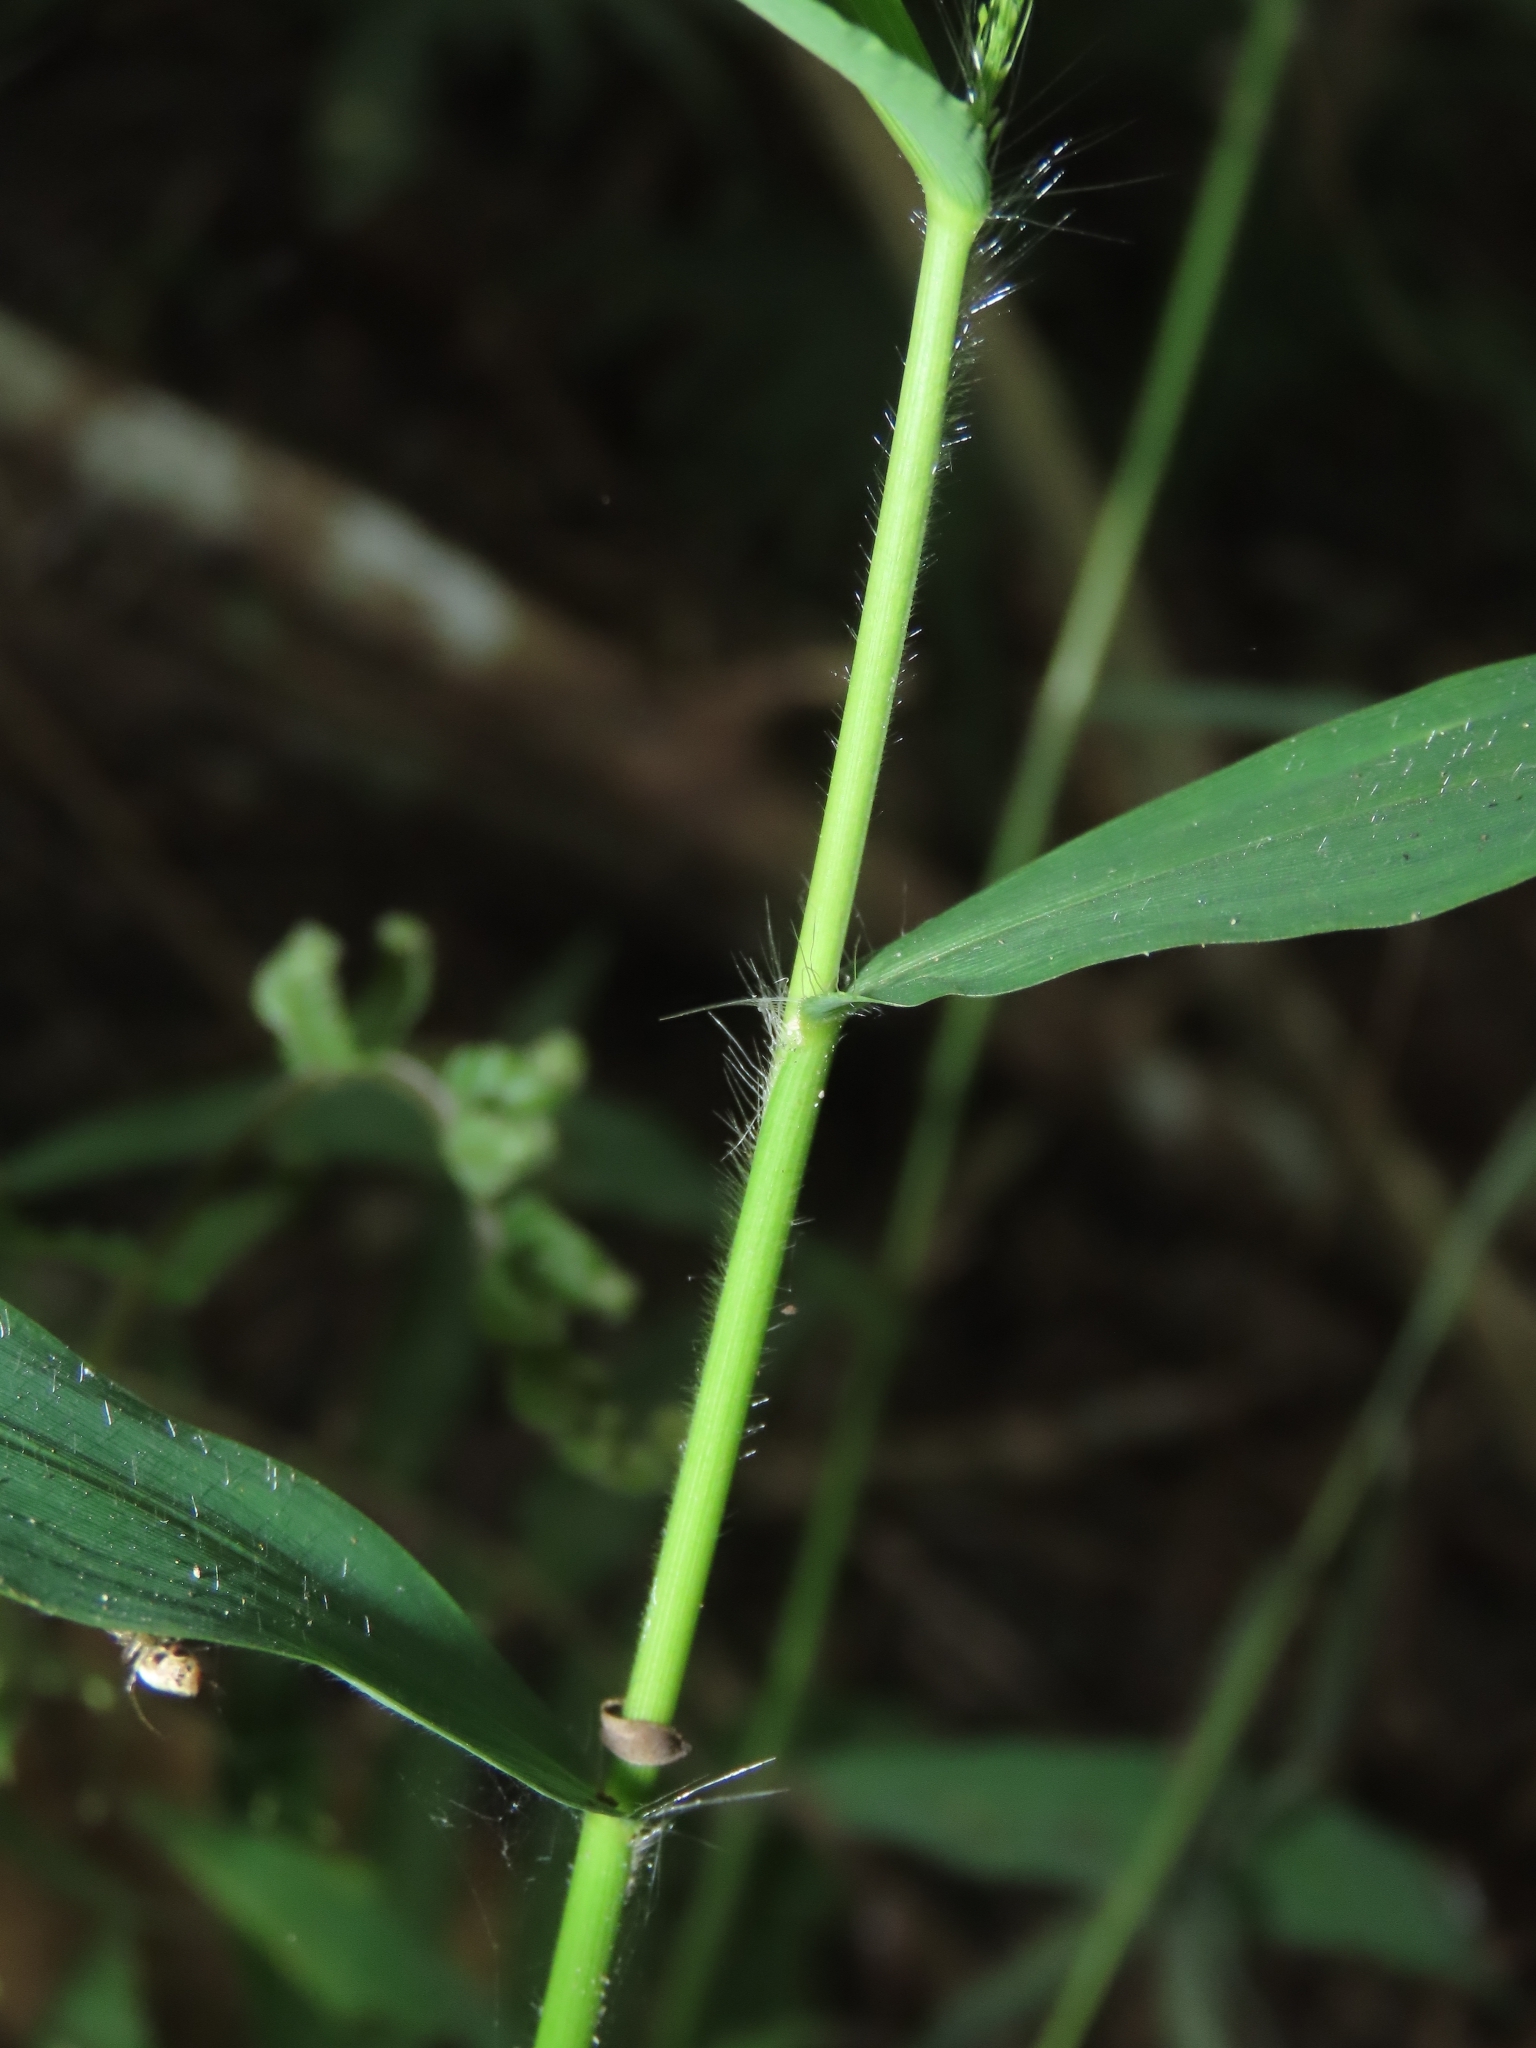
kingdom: Plantae
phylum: Tracheophyta
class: Liliopsida
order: Poales
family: Poaceae
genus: Cyrtococcum
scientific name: Cyrtococcum patens
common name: Broad-leaved bowgrass
